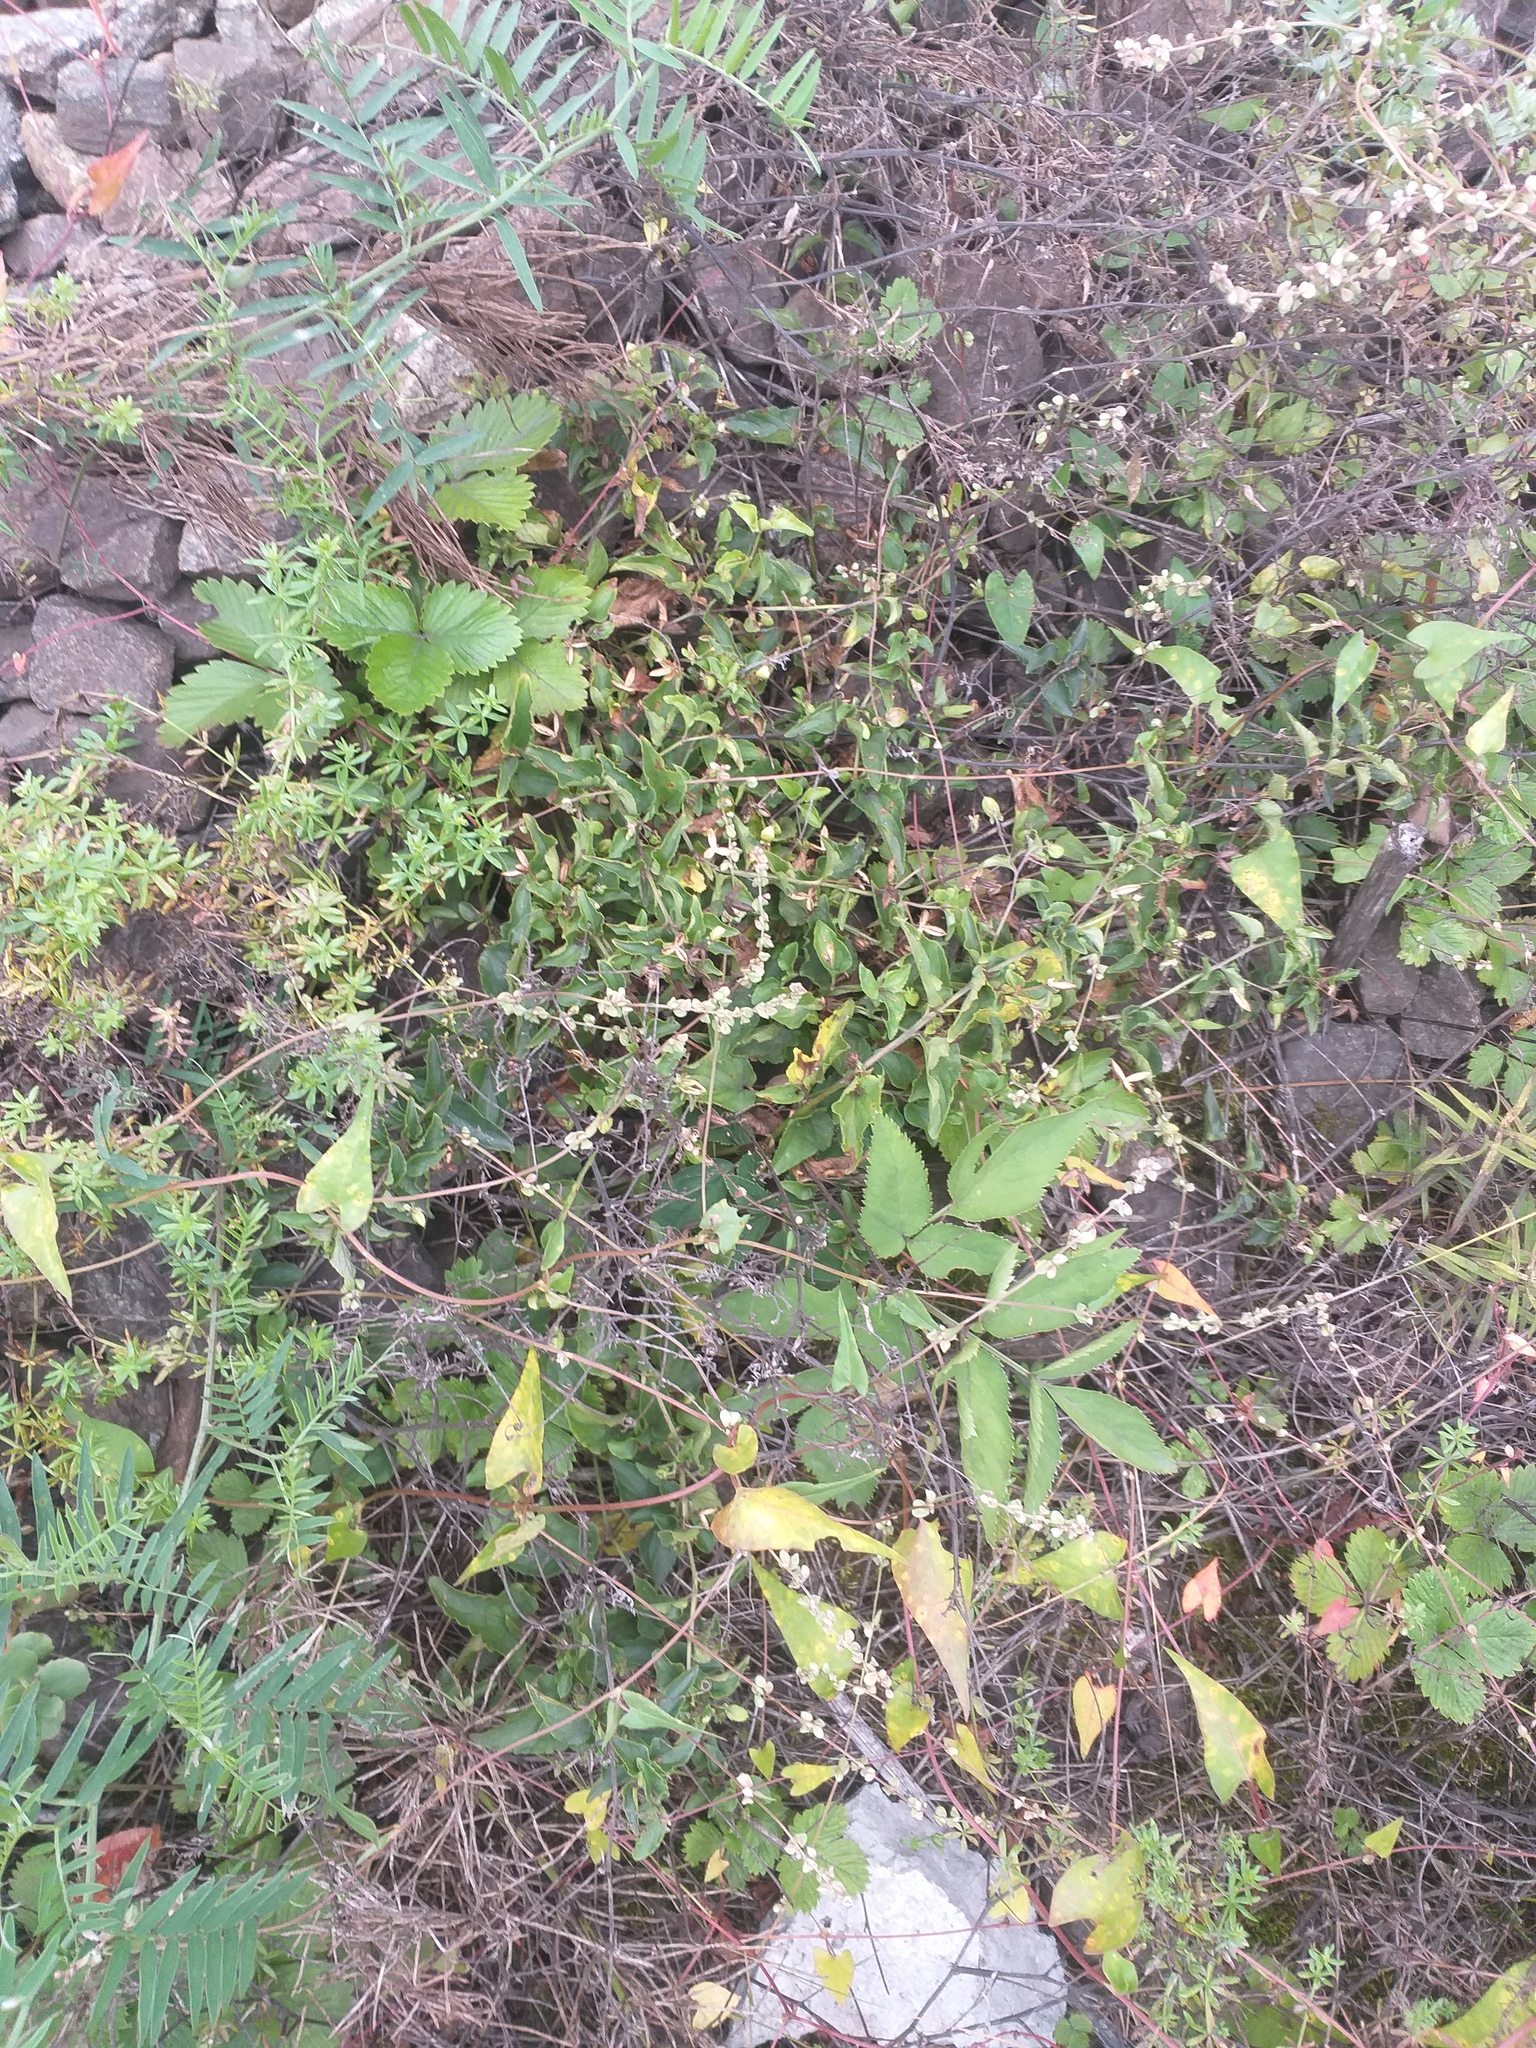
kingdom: Plantae
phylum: Tracheophyta
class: Magnoliopsida
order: Caryophyllales
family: Polygonaceae
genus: Fallopia
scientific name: Fallopia convolvulus
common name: Black bindweed
